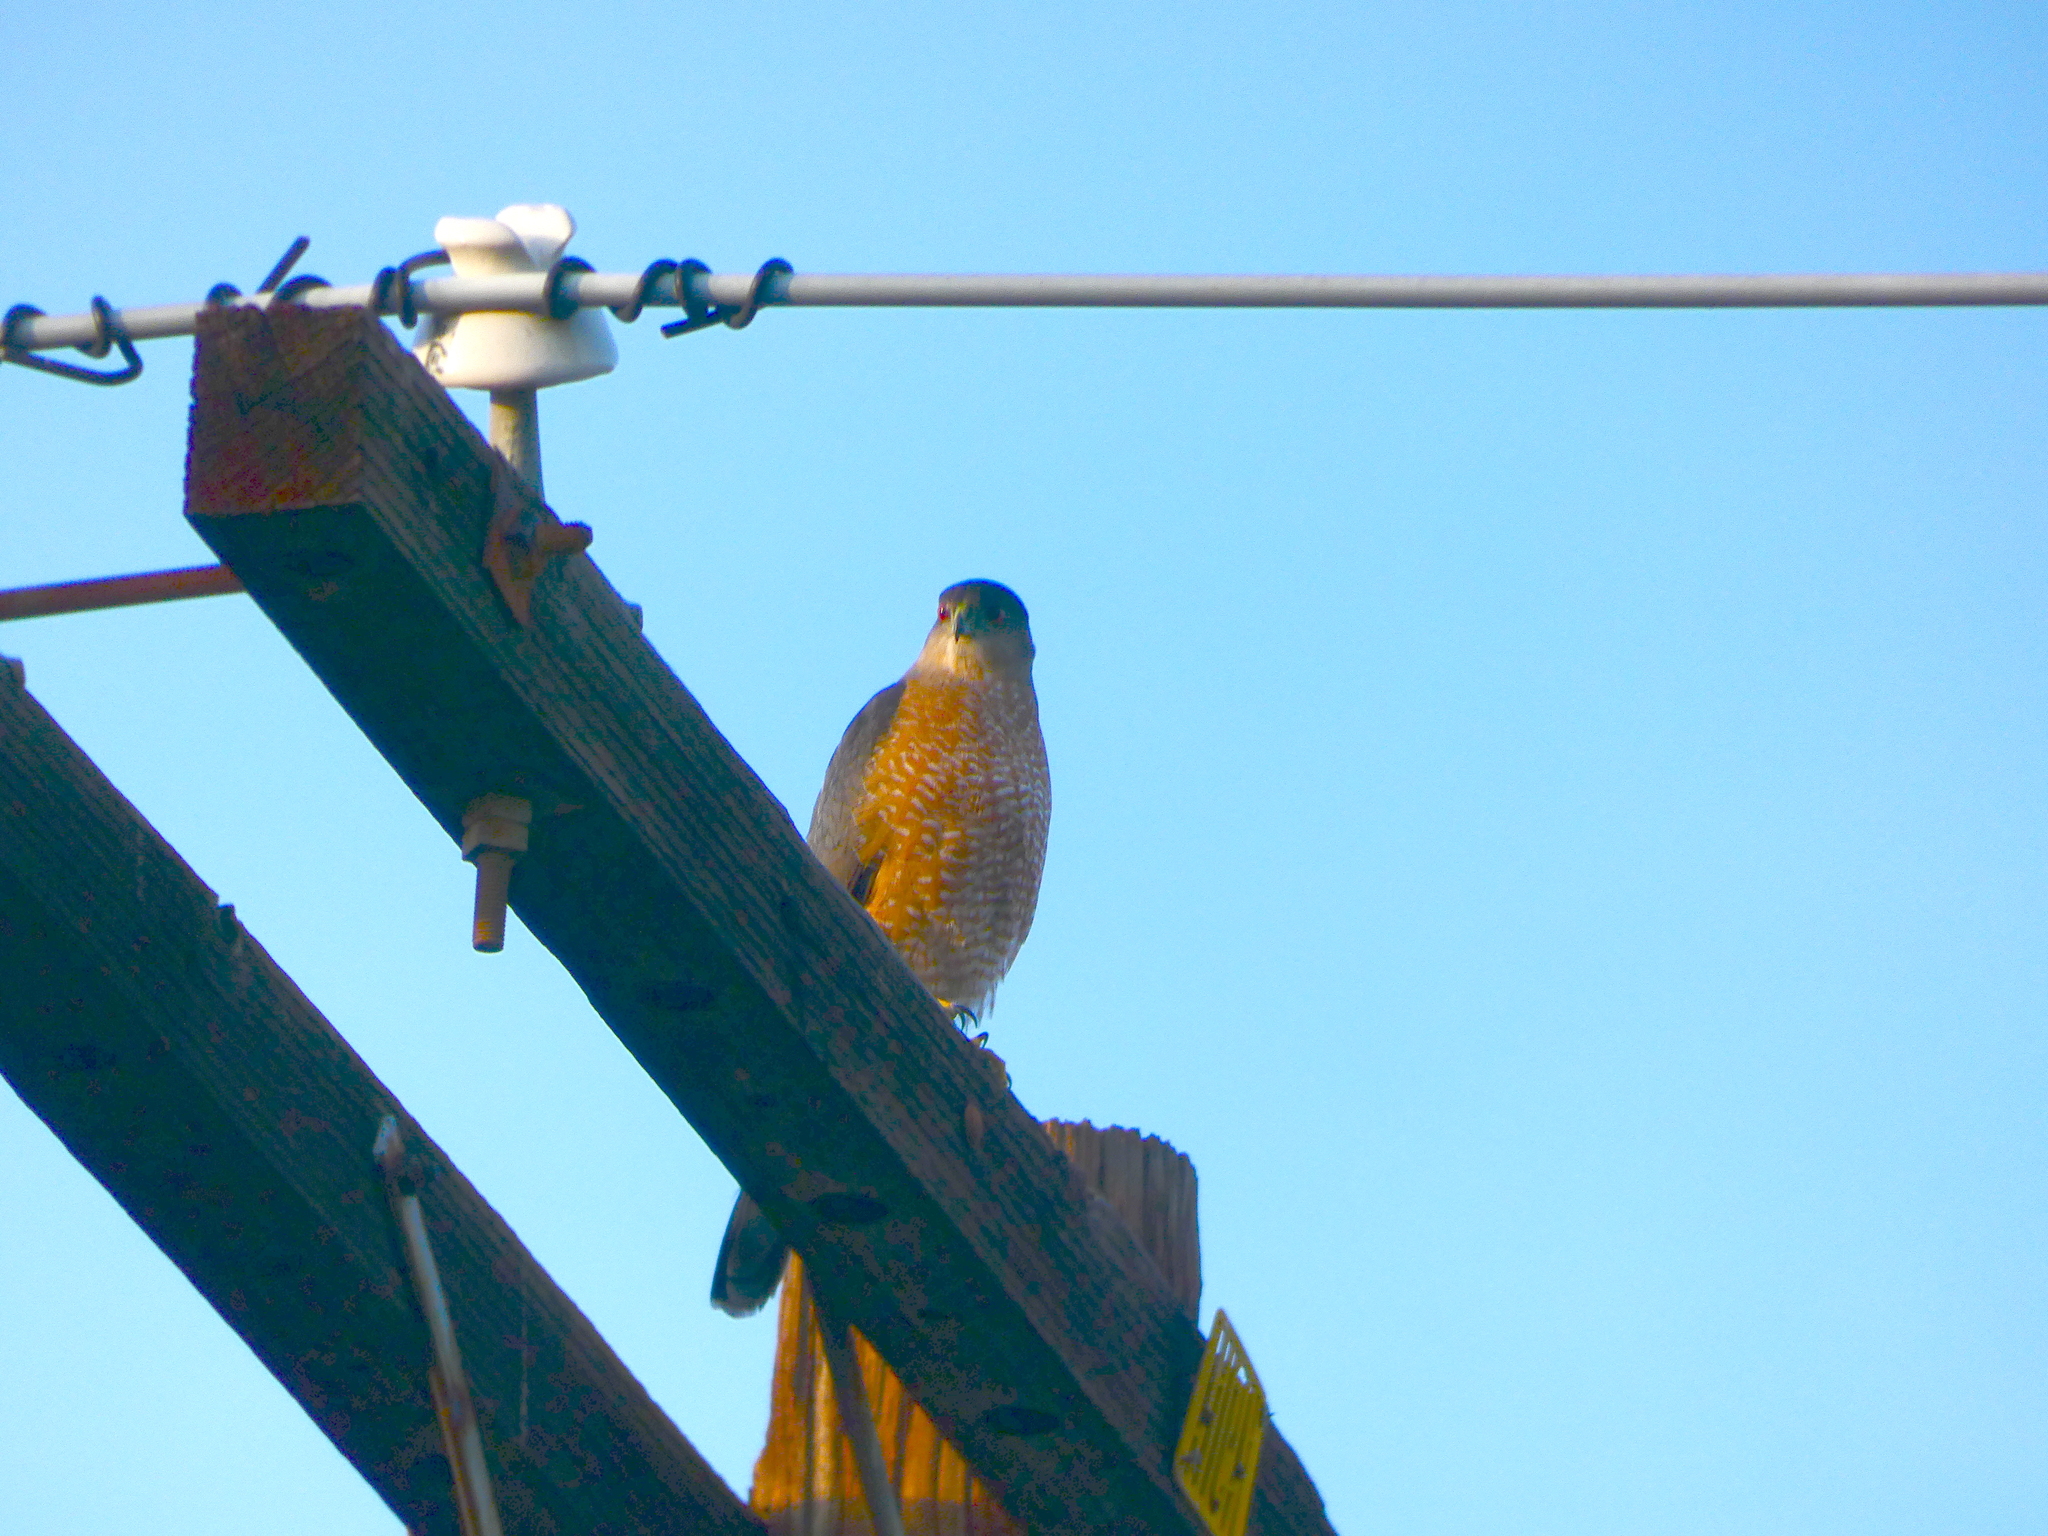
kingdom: Animalia
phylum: Chordata
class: Aves
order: Accipitriformes
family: Accipitridae
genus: Accipiter
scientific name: Accipiter cooperii
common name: Cooper's hawk
